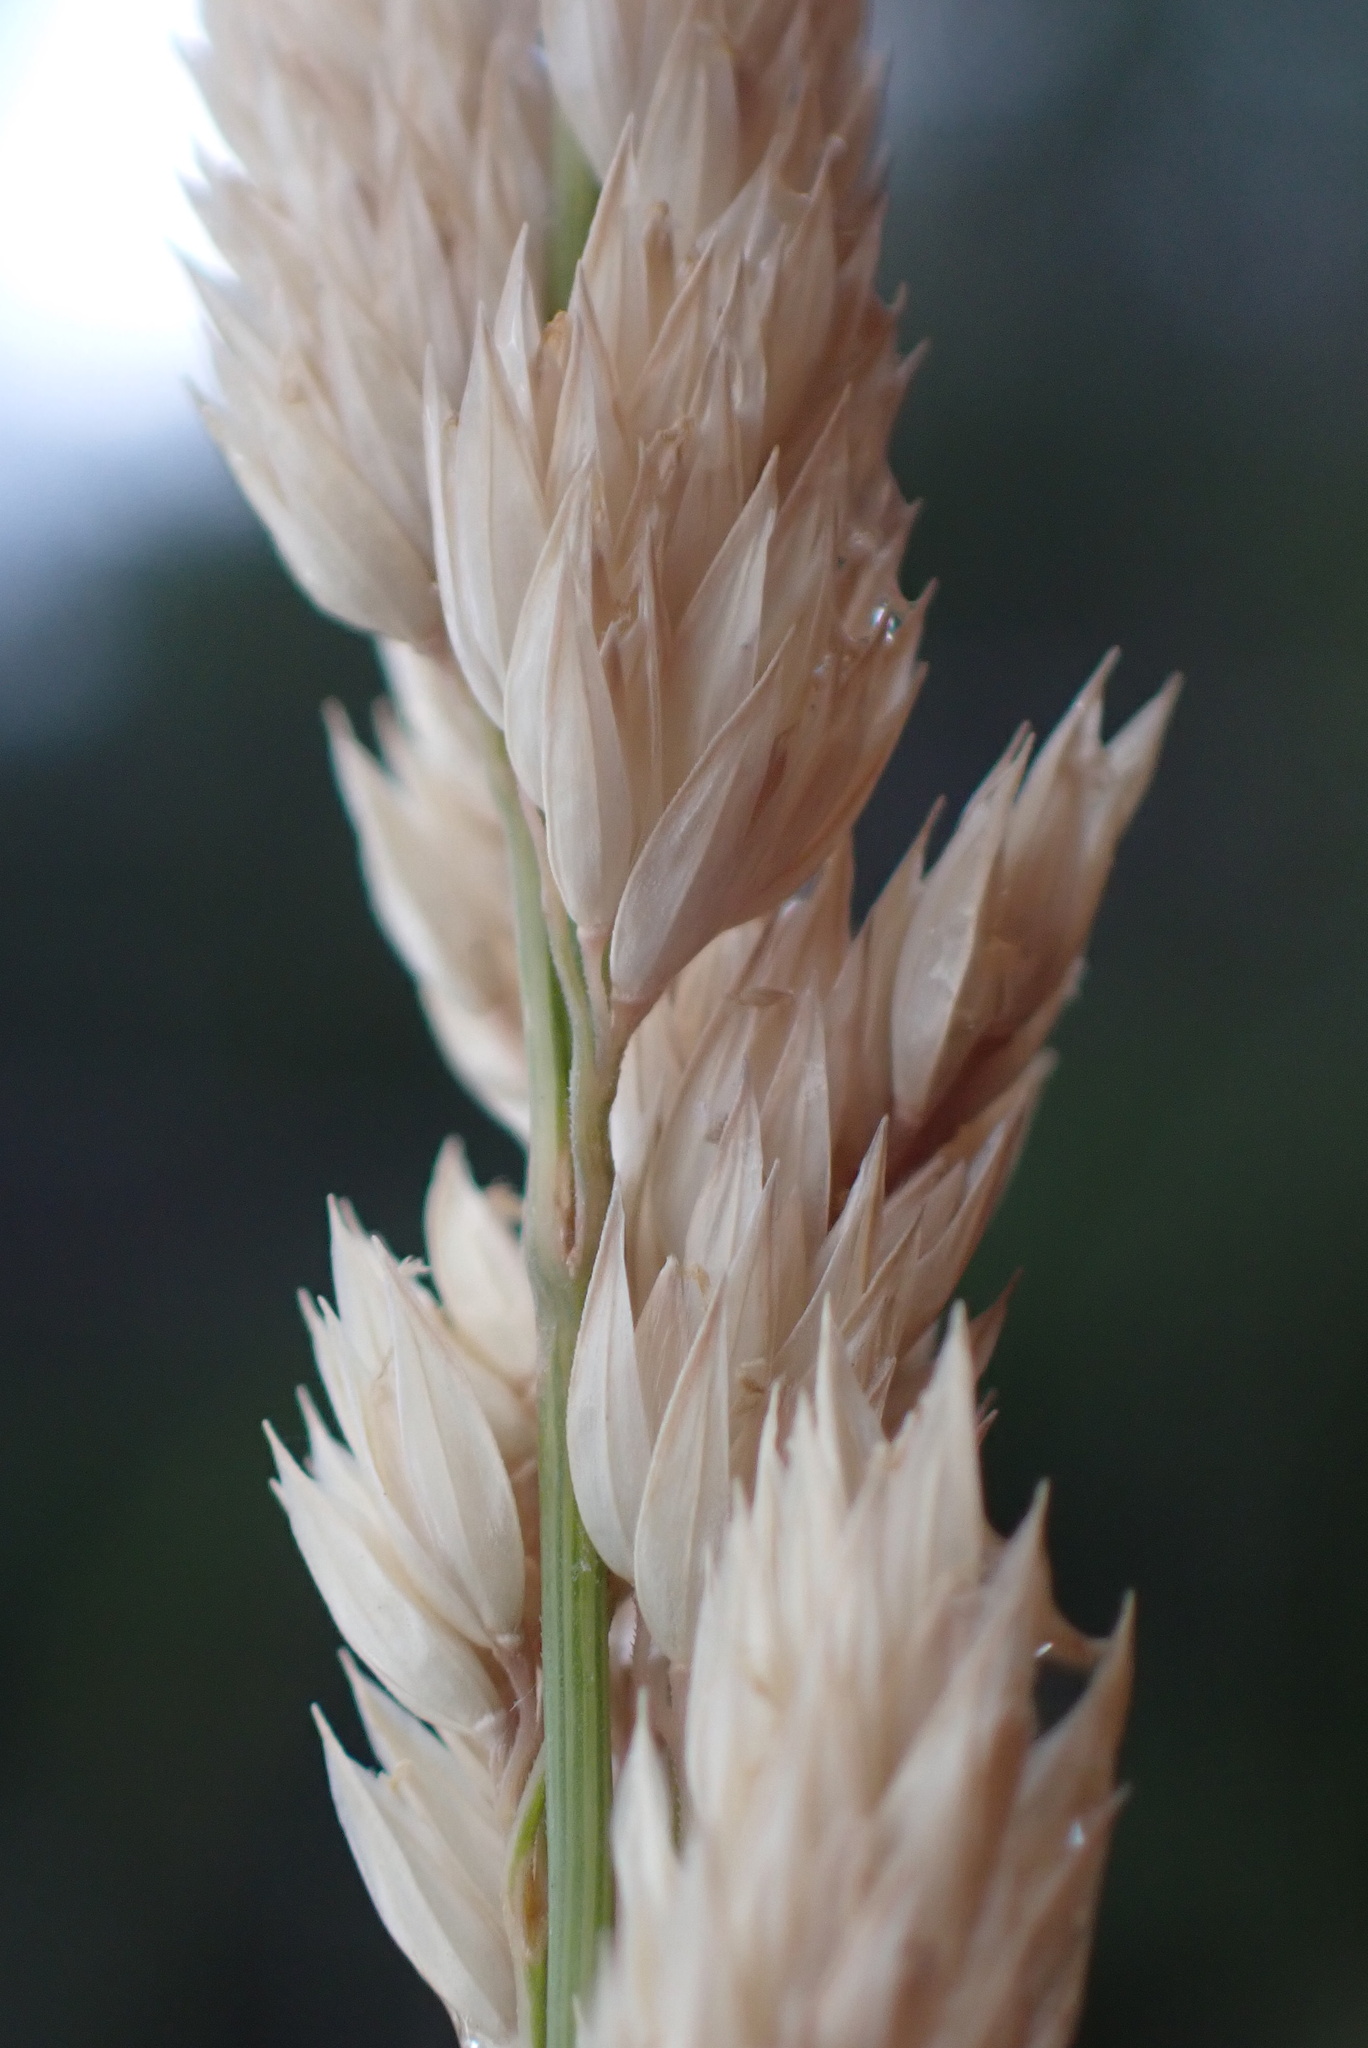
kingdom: Plantae
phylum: Tracheophyta
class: Liliopsida
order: Poales
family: Poaceae
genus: Phalaris
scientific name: Phalaris arundinacea
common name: Reed canary-grass
